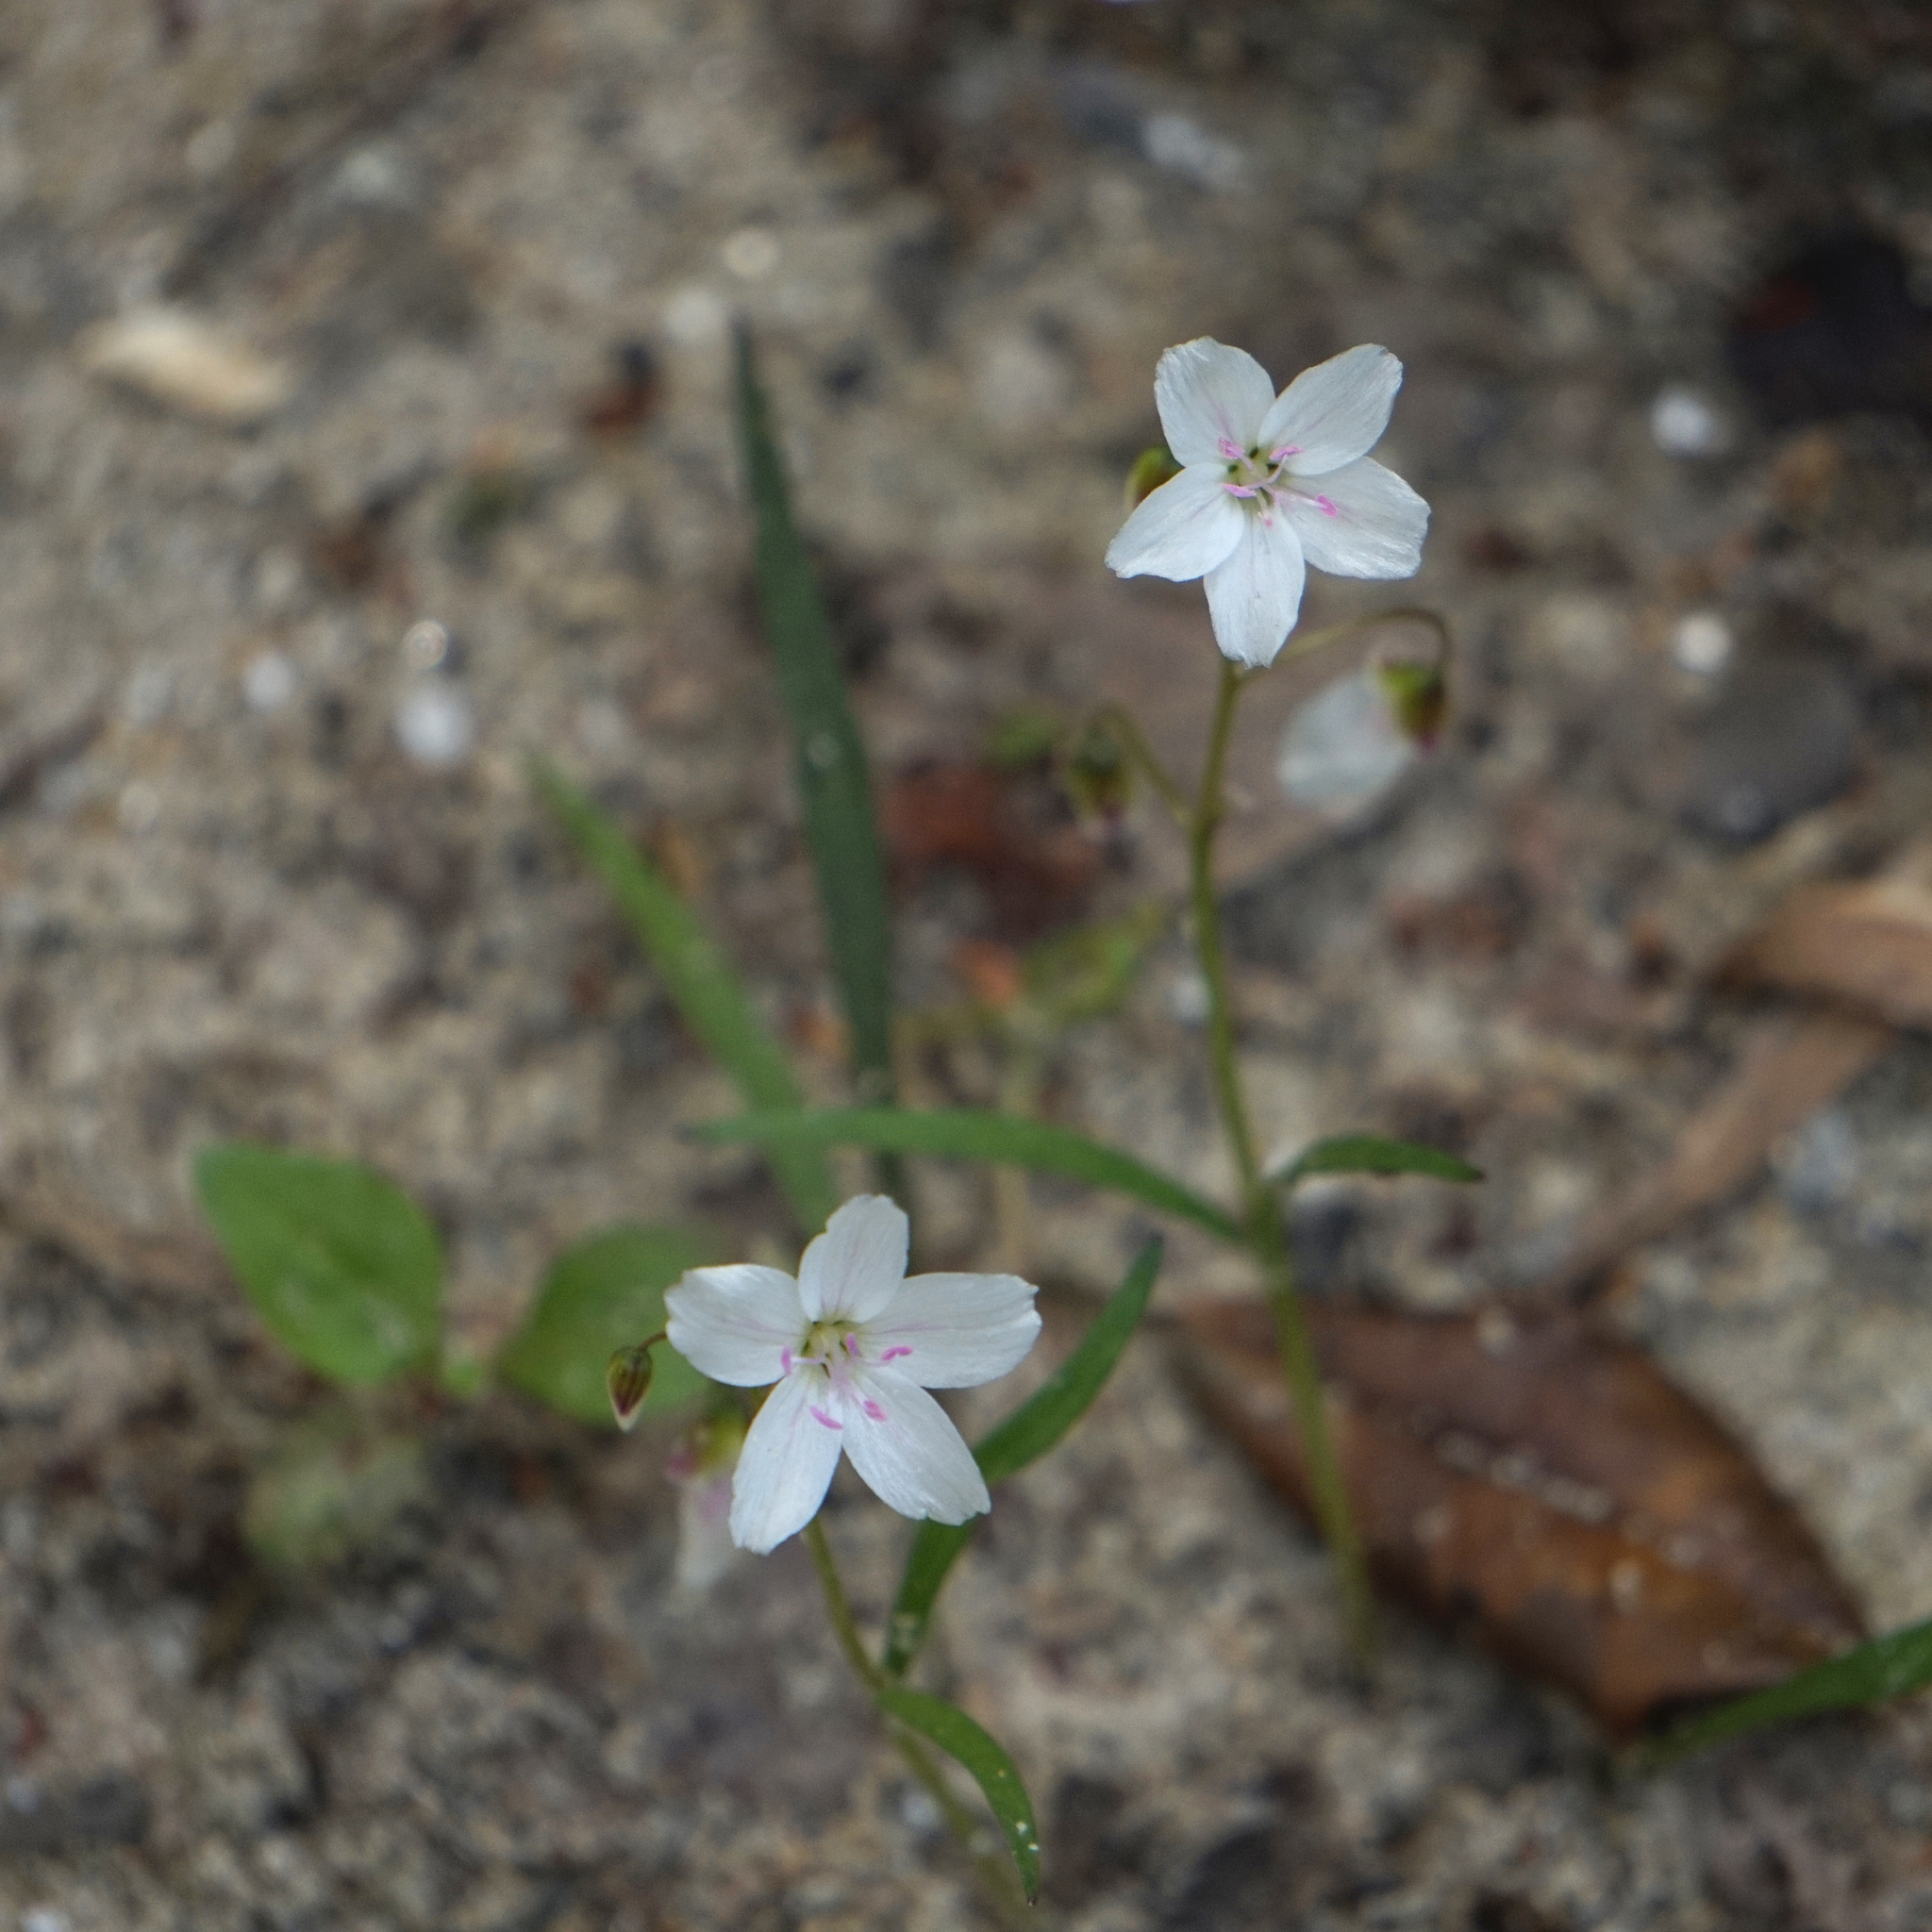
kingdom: Plantae
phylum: Tracheophyta
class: Magnoliopsida
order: Caryophyllales
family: Montiaceae
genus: Claytonia
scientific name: Claytonia virginica
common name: Virginia springbeauty
